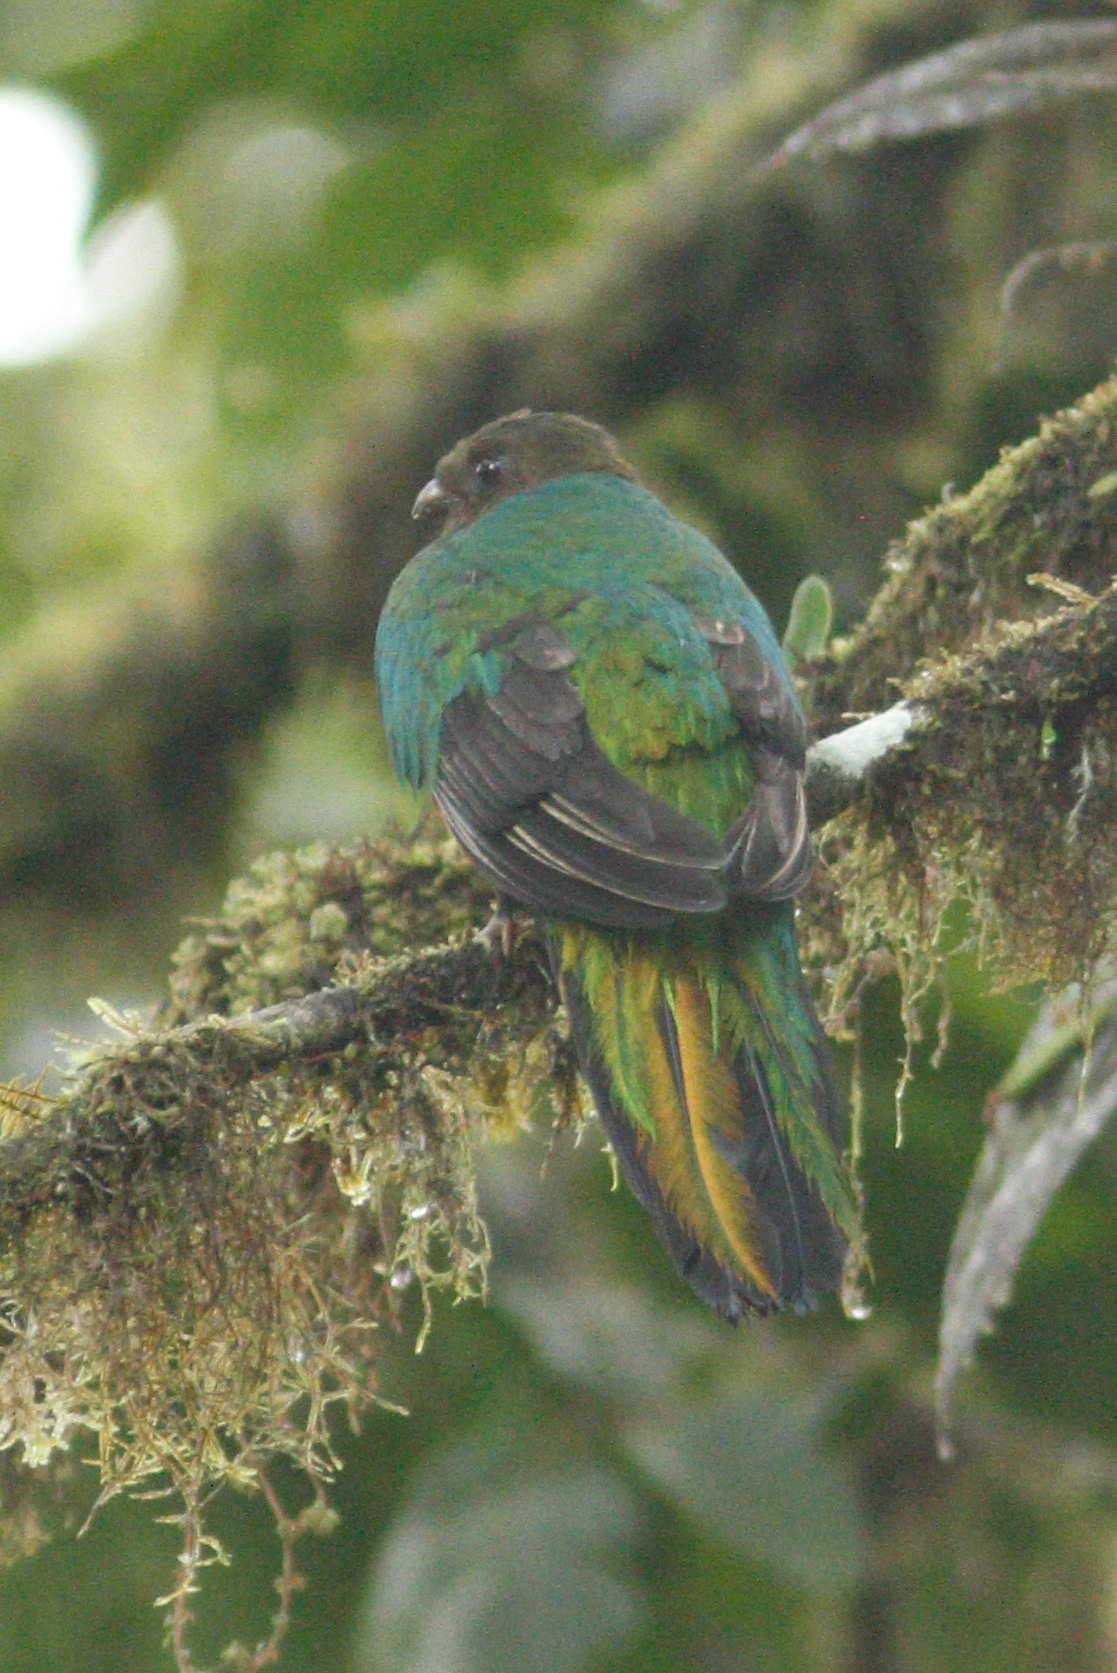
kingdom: Animalia
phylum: Chordata
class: Aves
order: Trogoniformes
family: Trogonidae
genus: Pharomachrus
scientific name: Pharomachrus auriceps
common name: Golden-headed quetzal
